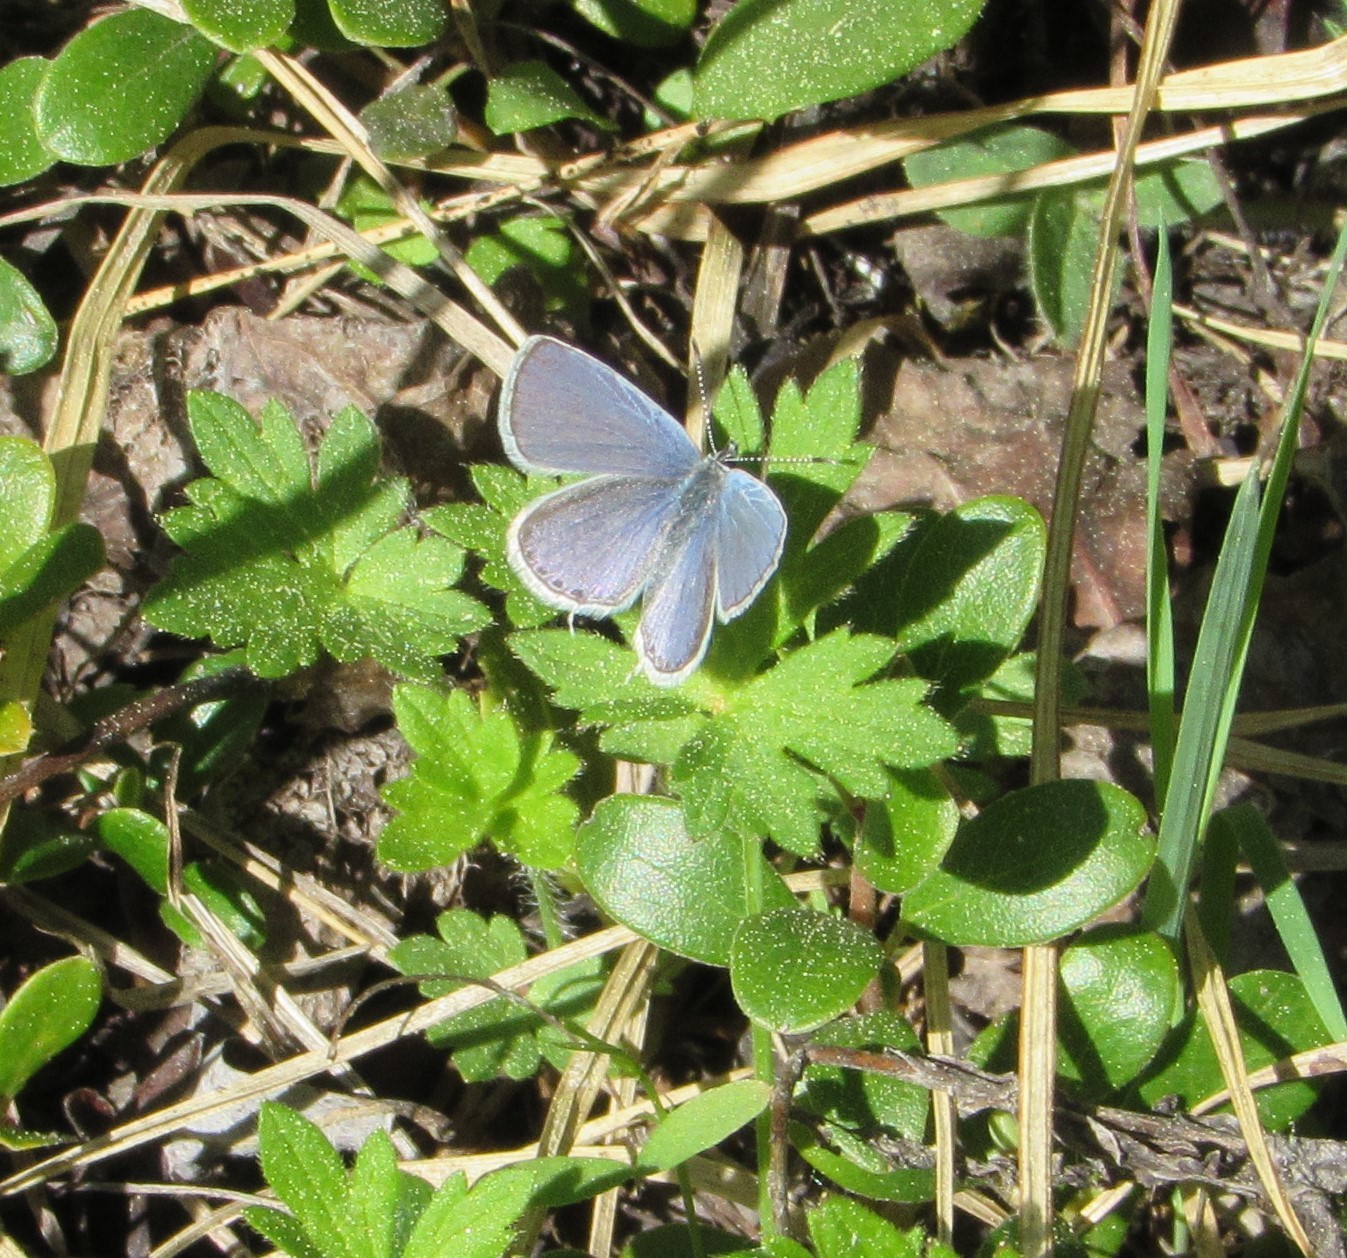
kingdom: Animalia
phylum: Arthropoda
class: Insecta
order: Lepidoptera
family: Lycaenidae
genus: Elkalyce
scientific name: Elkalyce amyntula
